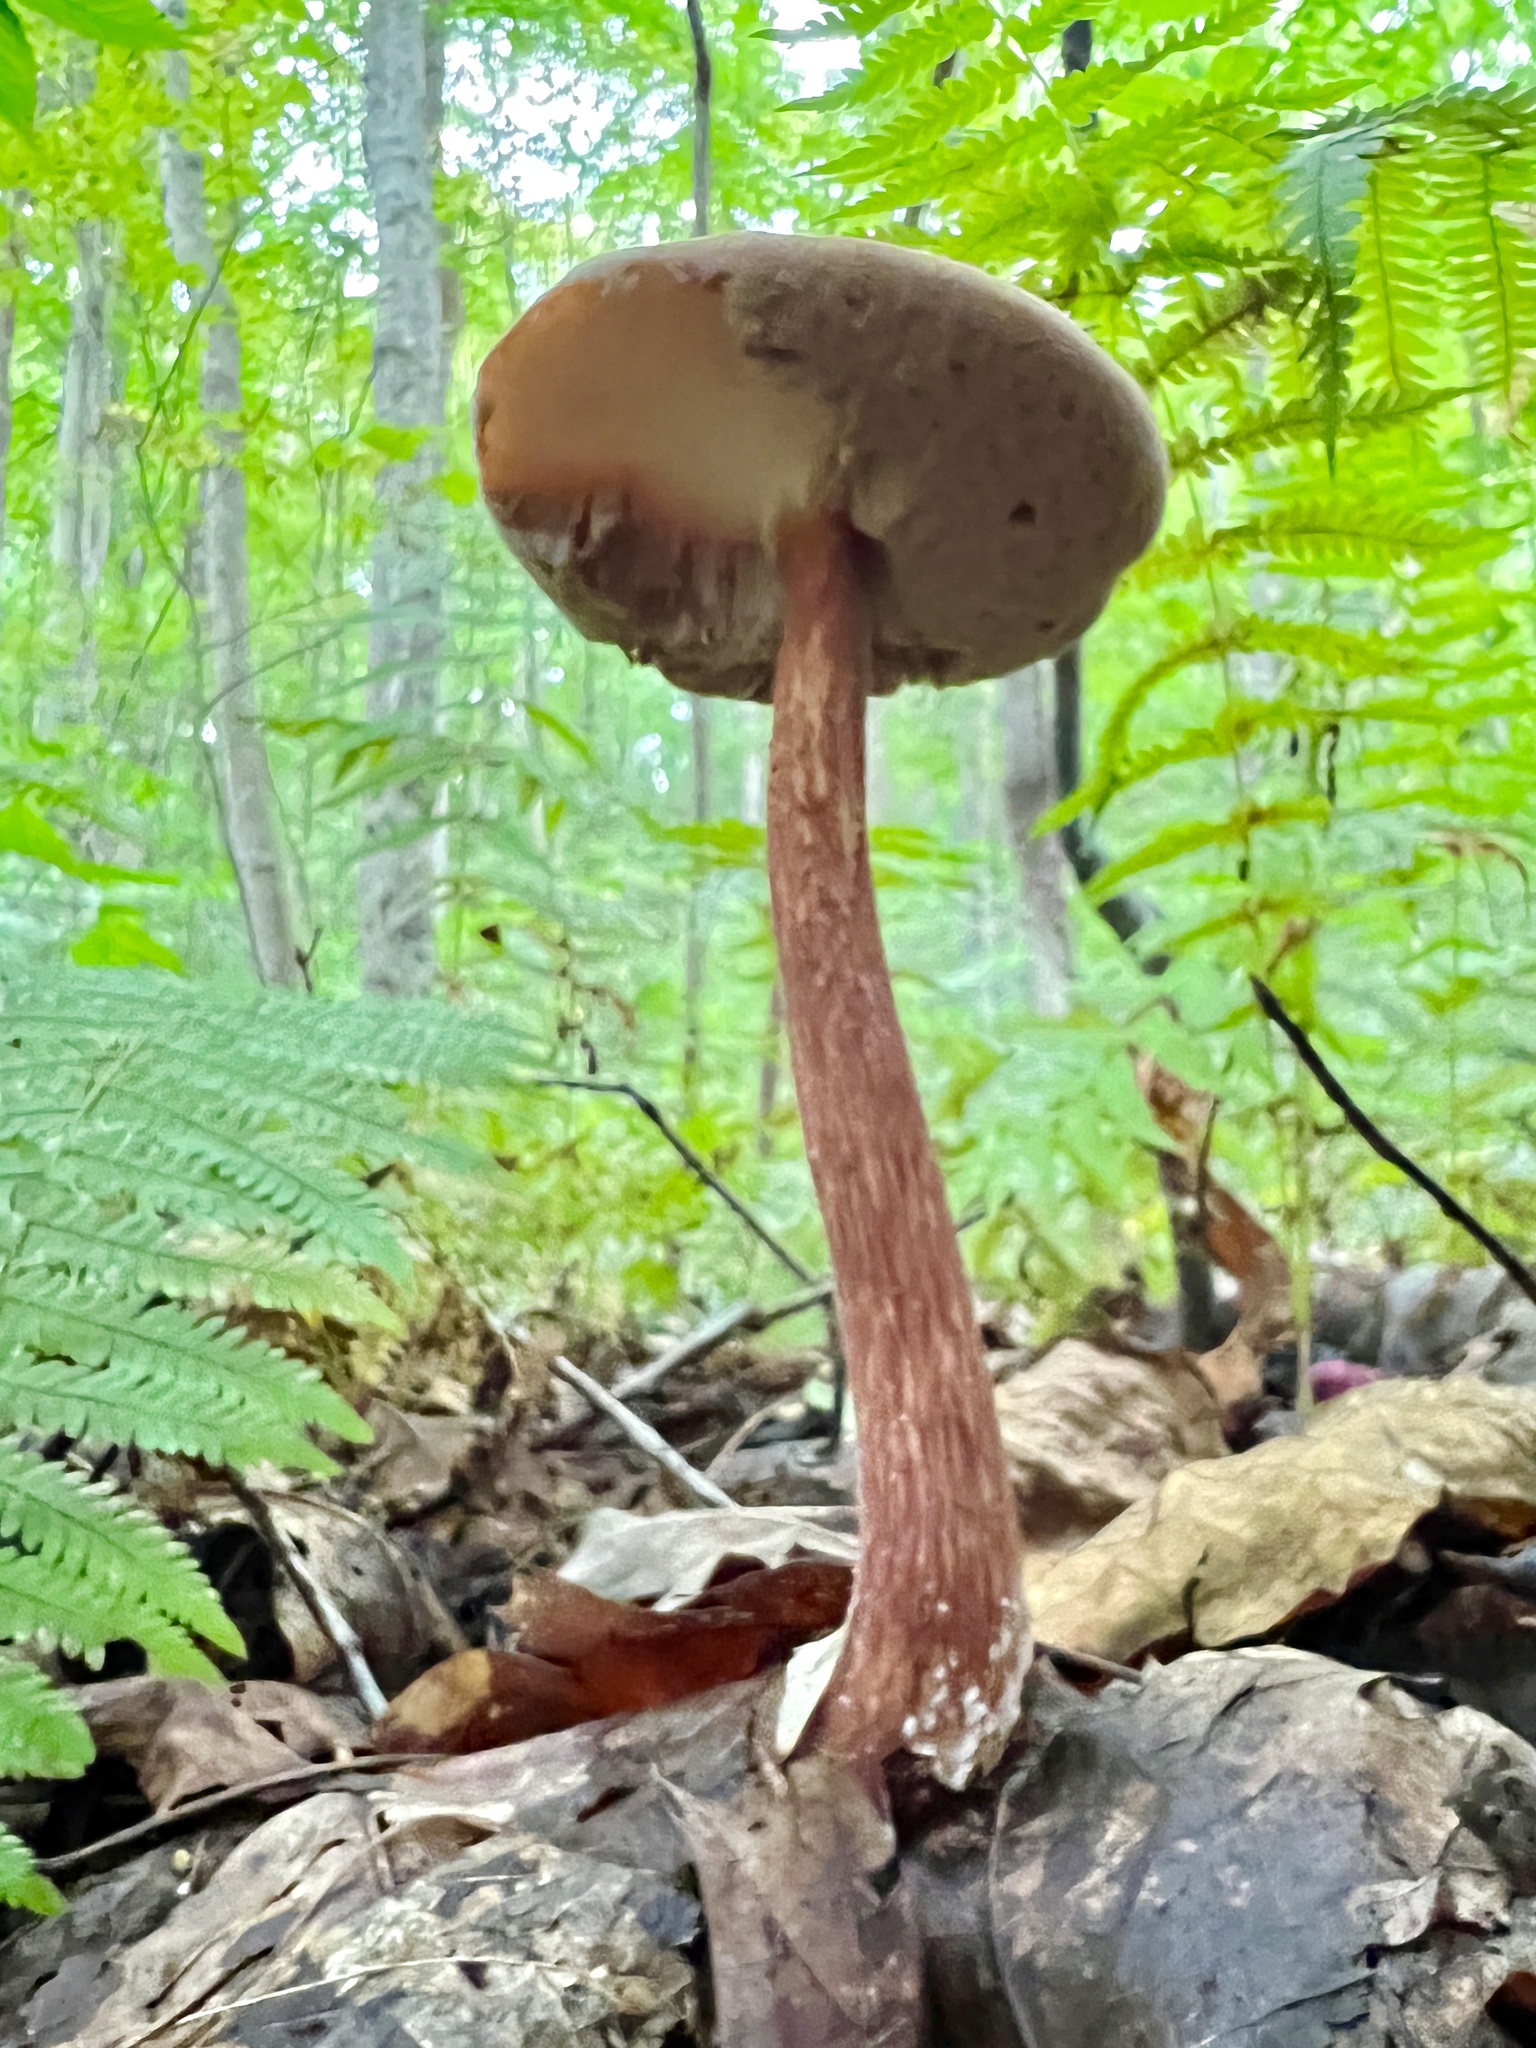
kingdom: Fungi
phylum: Basidiomycota
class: Agaricomycetes
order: Boletales
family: Boletaceae
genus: Austroboletus
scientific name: Austroboletus gracilis
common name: Graceful bolete
